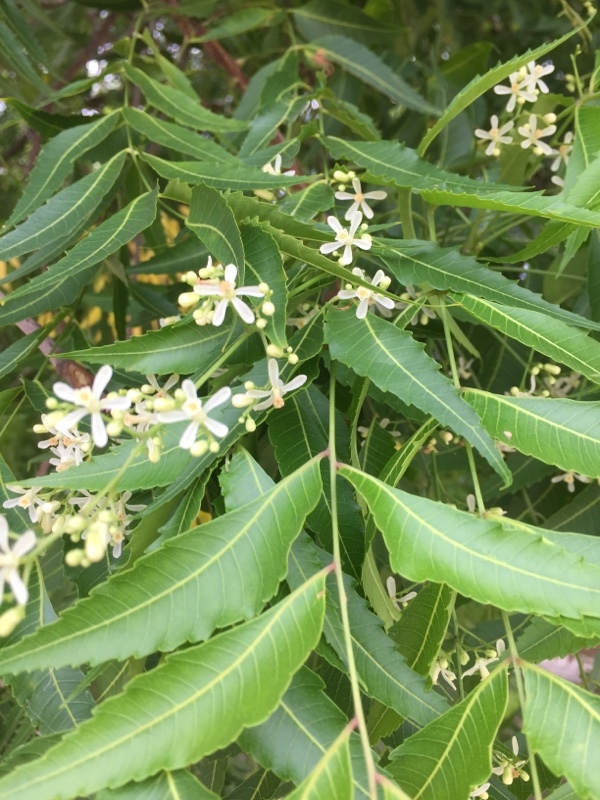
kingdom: Plantae
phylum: Tracheophyta
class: Magnoliopsida
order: Sapindales
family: Meliaceae
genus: Melia
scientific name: Melia azedarach
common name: Chinaberrytree
